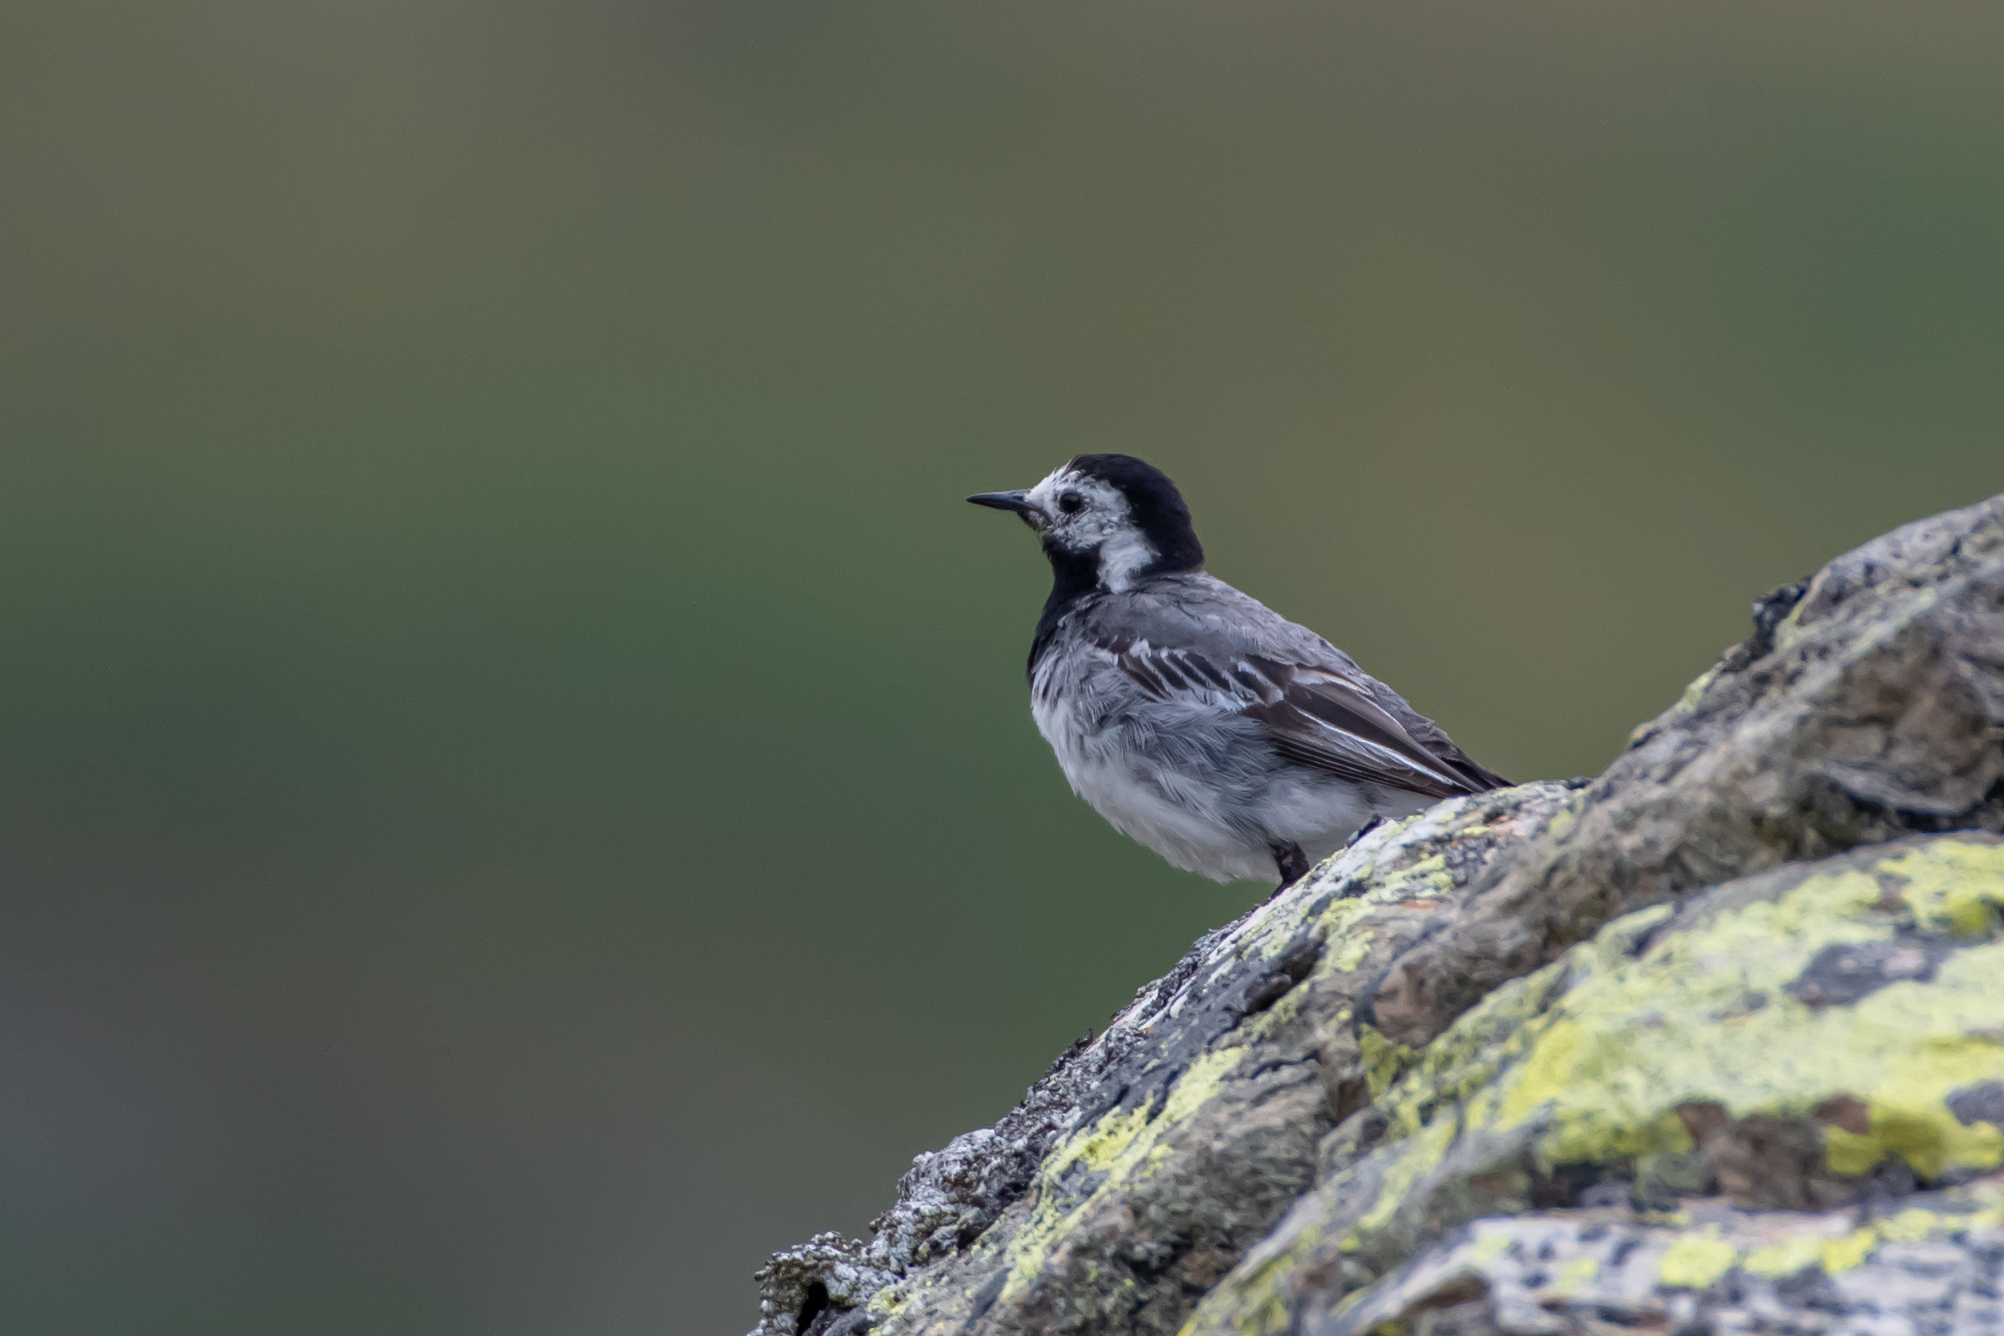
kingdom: Animalia
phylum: Chordata
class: Aves
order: Passeriformes
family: Motacillidae
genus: Motacilla
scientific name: Motacilla alba
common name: White wagtail
